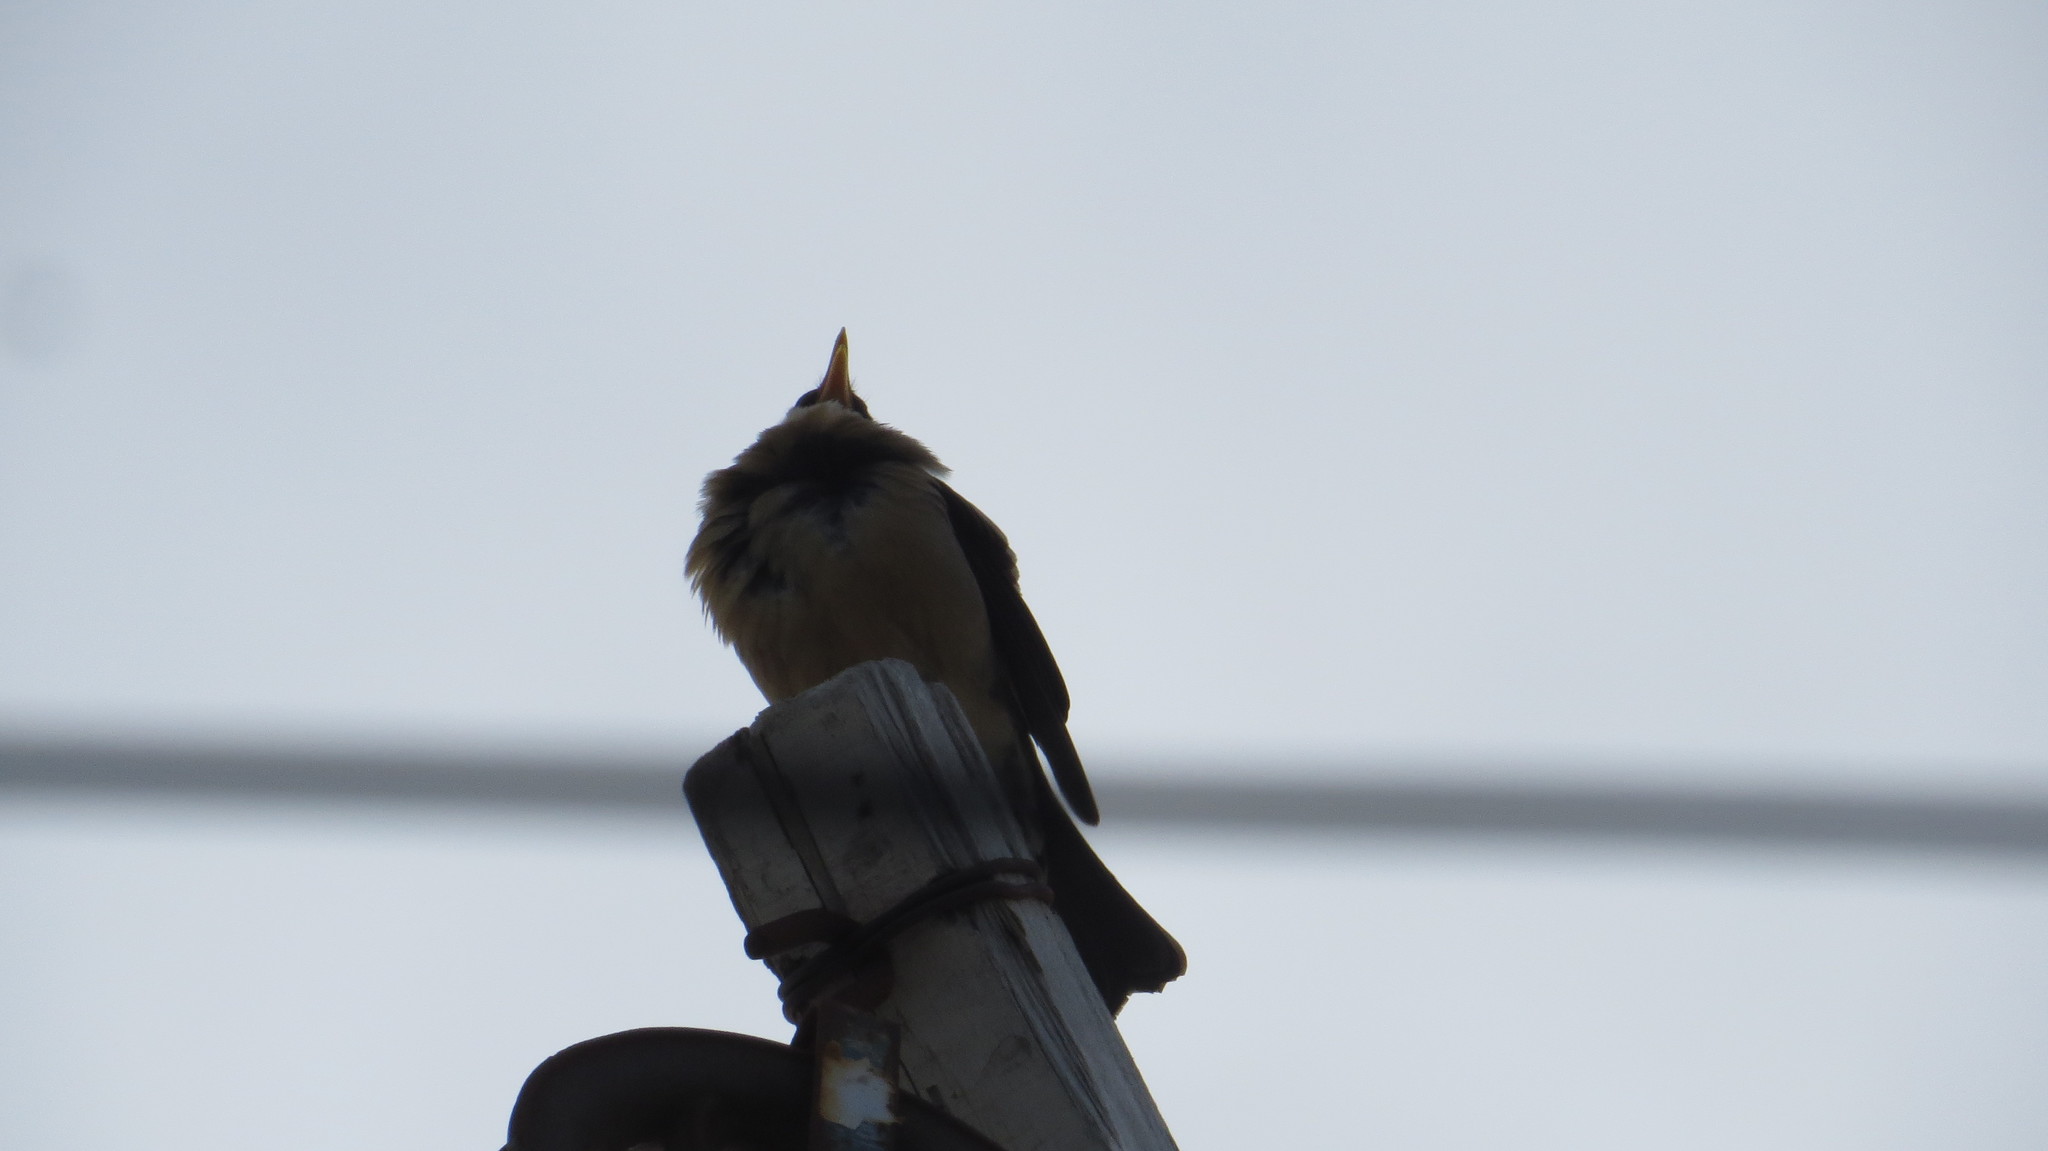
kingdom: Animalia
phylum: Chordata
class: Aves
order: Passeriformes
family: Turdidae
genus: Turdus
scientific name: Turdus chiguanco
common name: Chiguanco thrush
